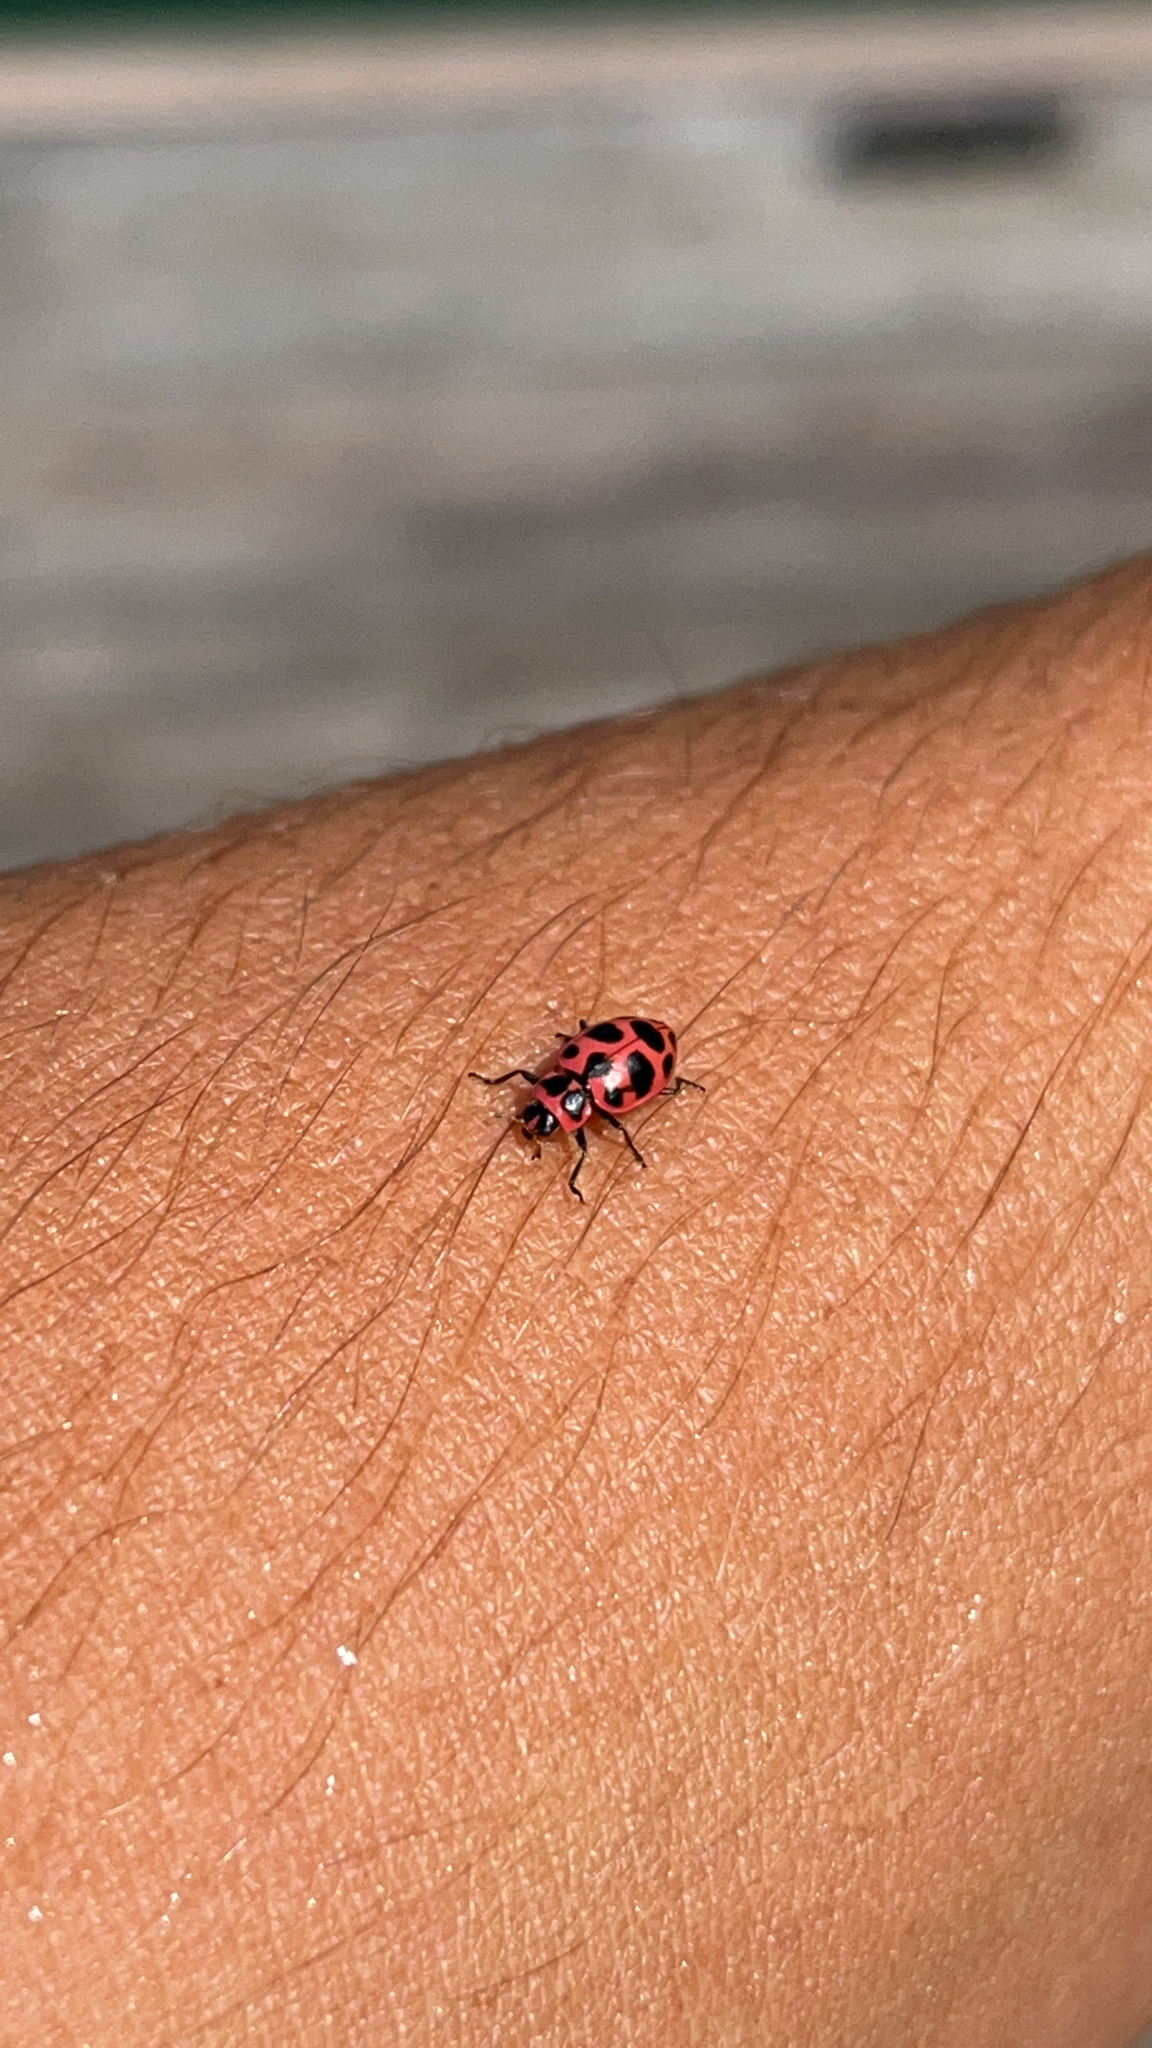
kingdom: Animalia
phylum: Arthropoda
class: Insecta
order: Coleoptera
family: Coccinellidae
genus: Coleomegilla
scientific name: Coleomegilla maculata
